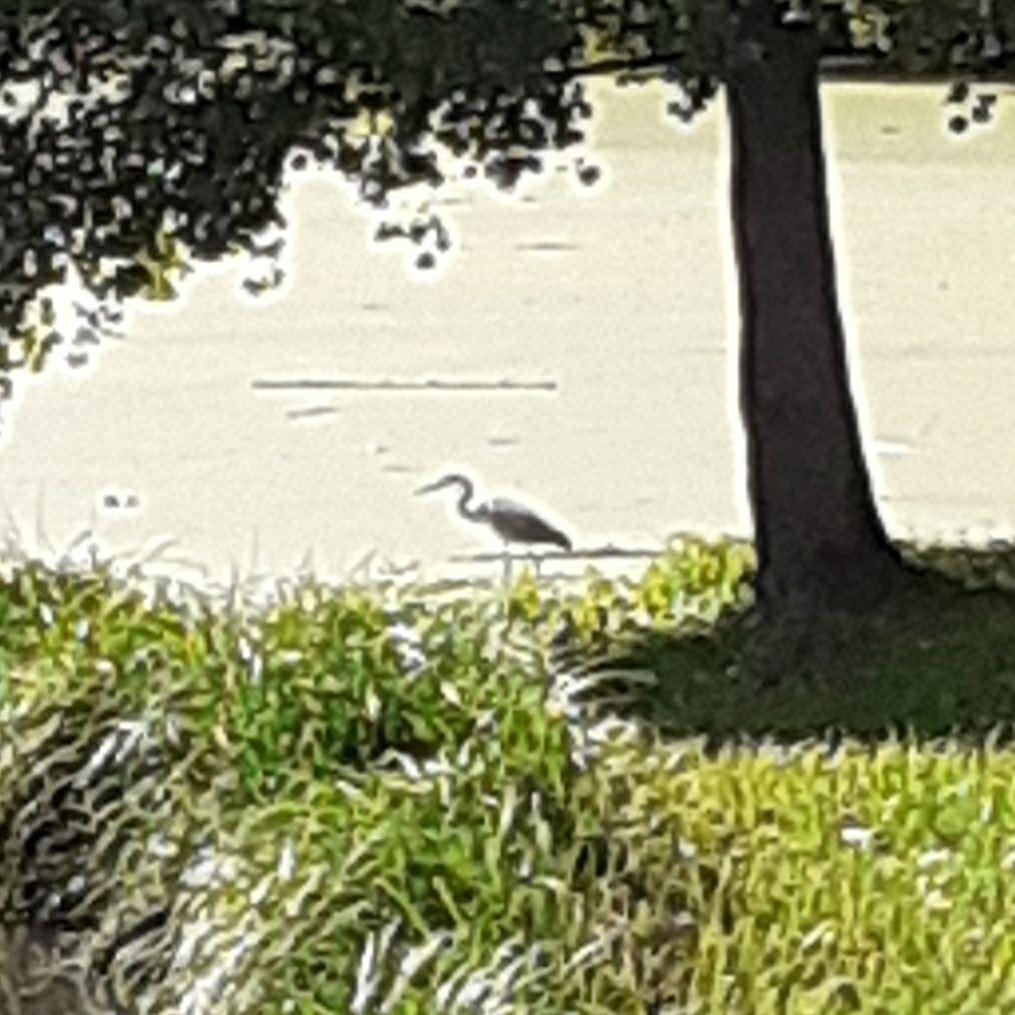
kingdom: Animalia
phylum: Chordata
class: Aves
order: Pelecaniformes
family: Ardeidae
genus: Ardea
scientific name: Ardea cinerea
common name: Grey heron
